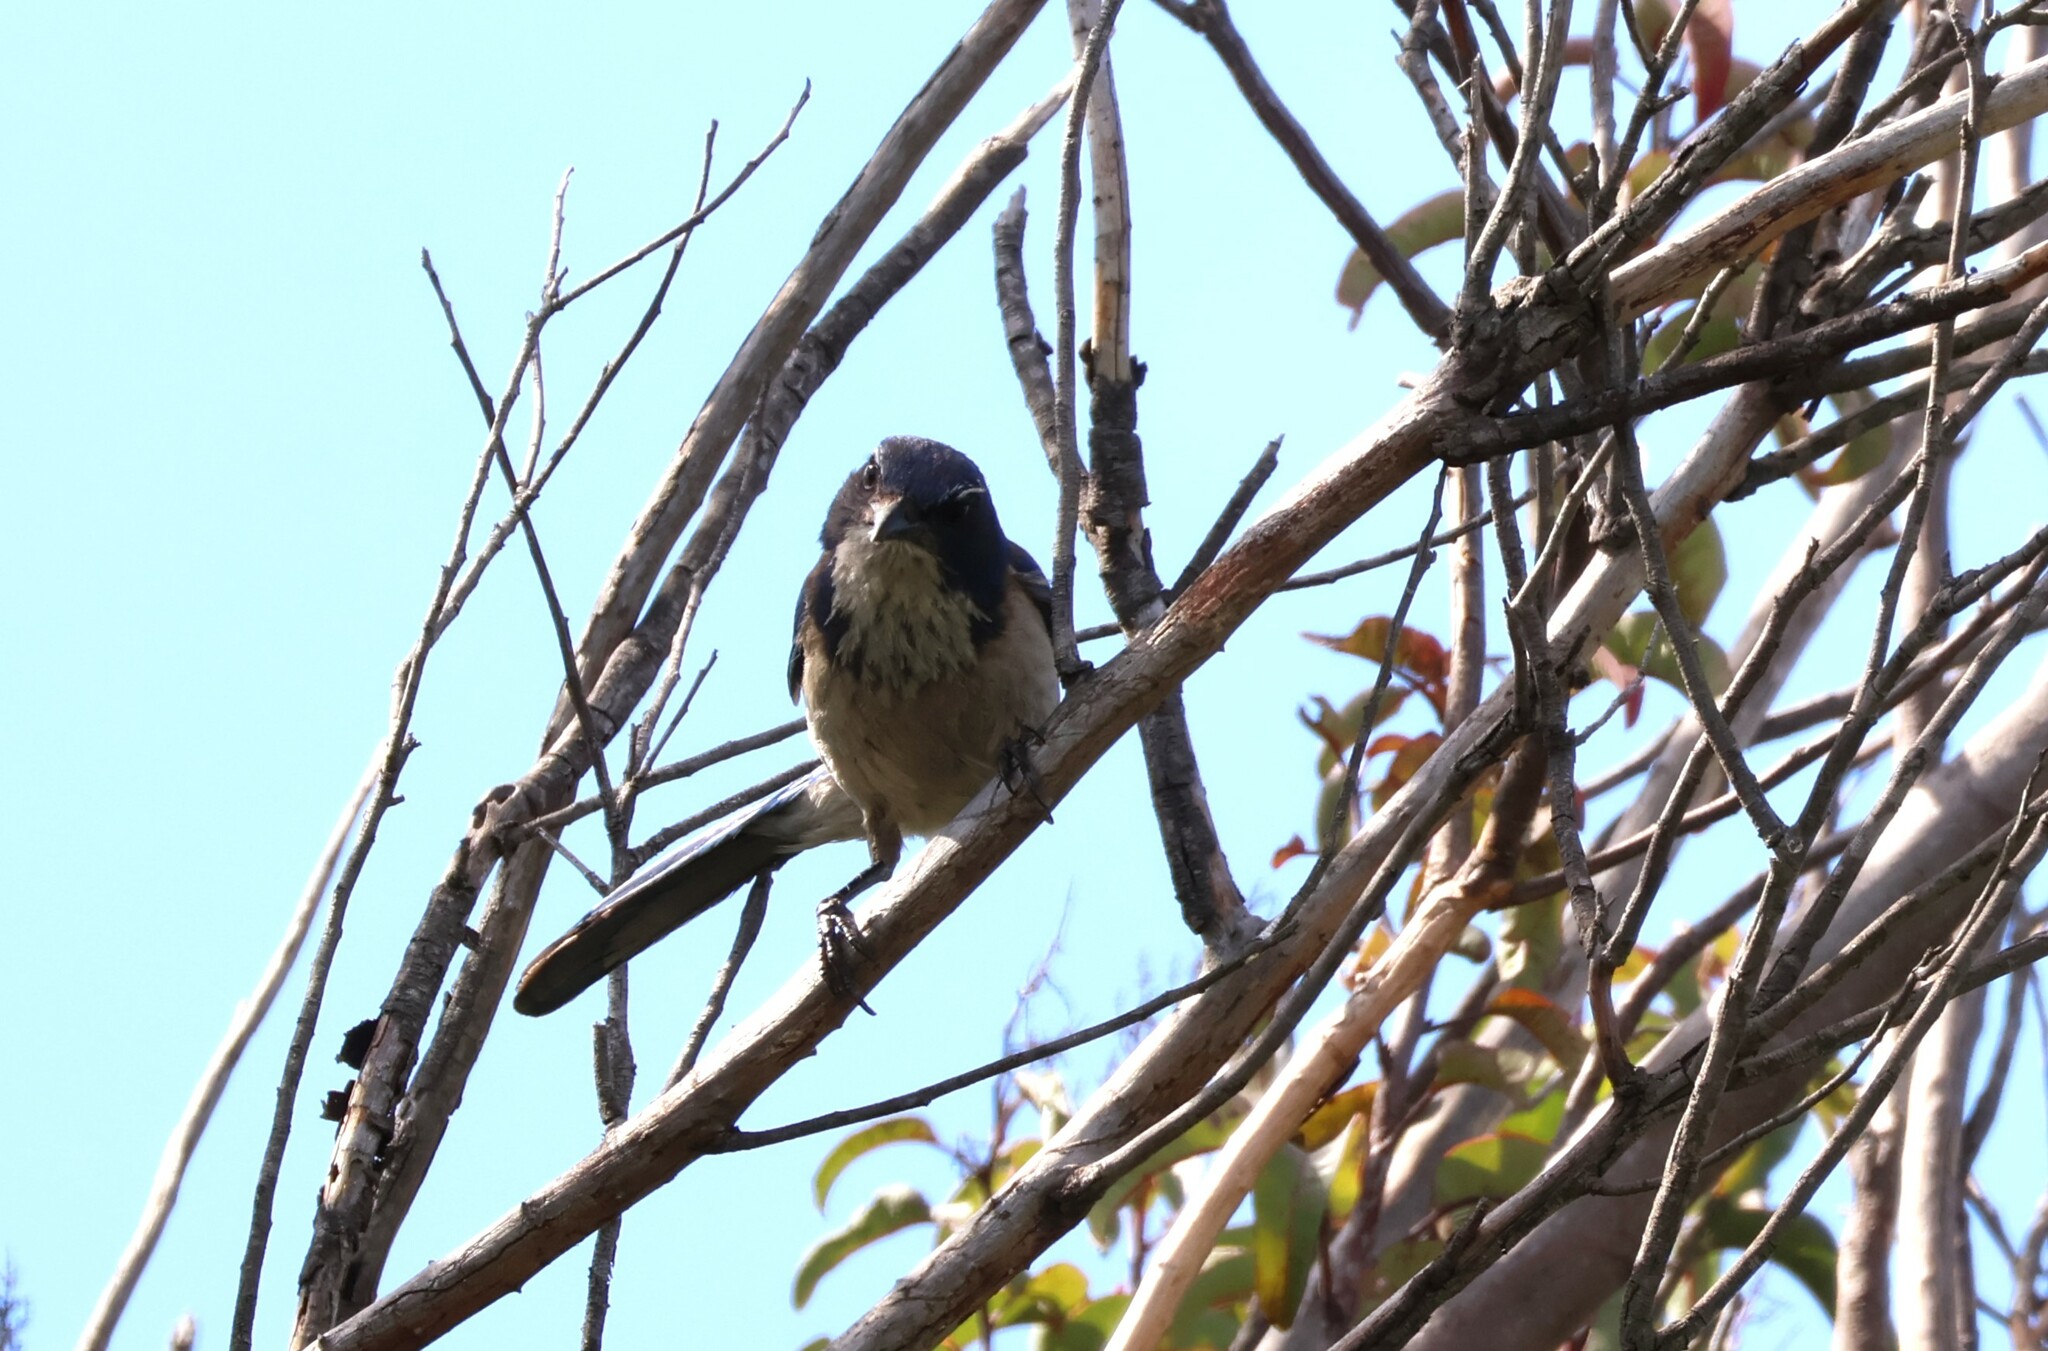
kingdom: Animalia
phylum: Chordata
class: Aves
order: Passeriformes
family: Corvidae
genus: Aphelocoma
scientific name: Aphelocoma californica
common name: California scrub-jay
